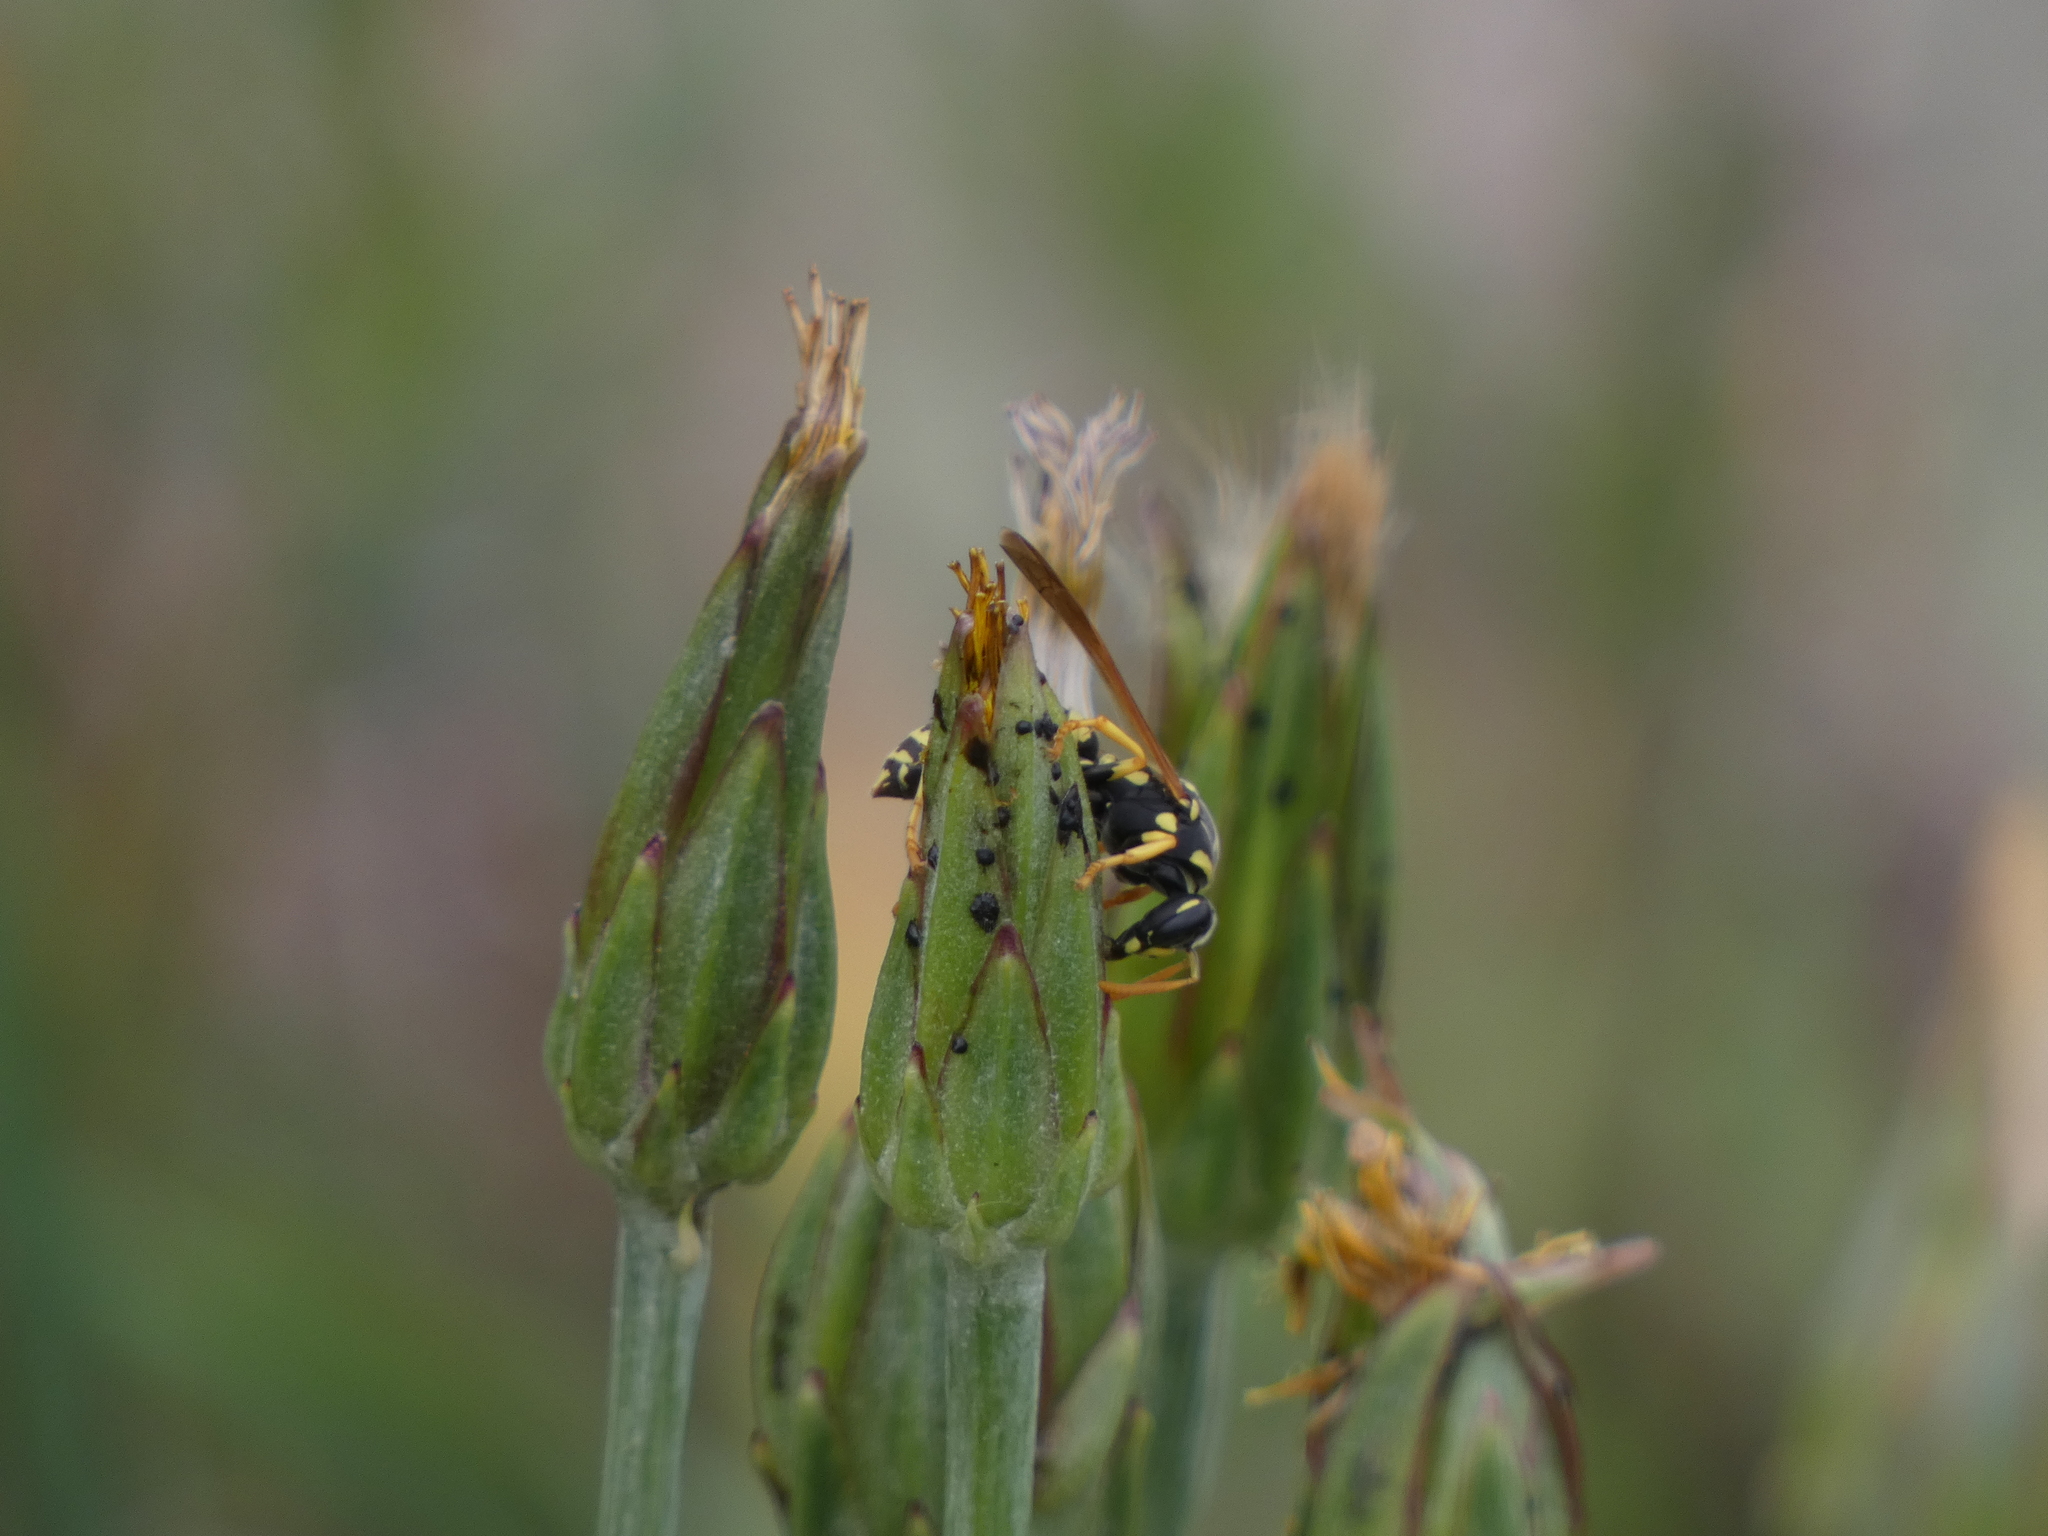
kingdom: Animalia
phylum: Arthropoda
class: Insecta
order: Hymenoptera
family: Eumenidae
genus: Polistes
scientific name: Polistes gallicus
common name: Paper wasp
